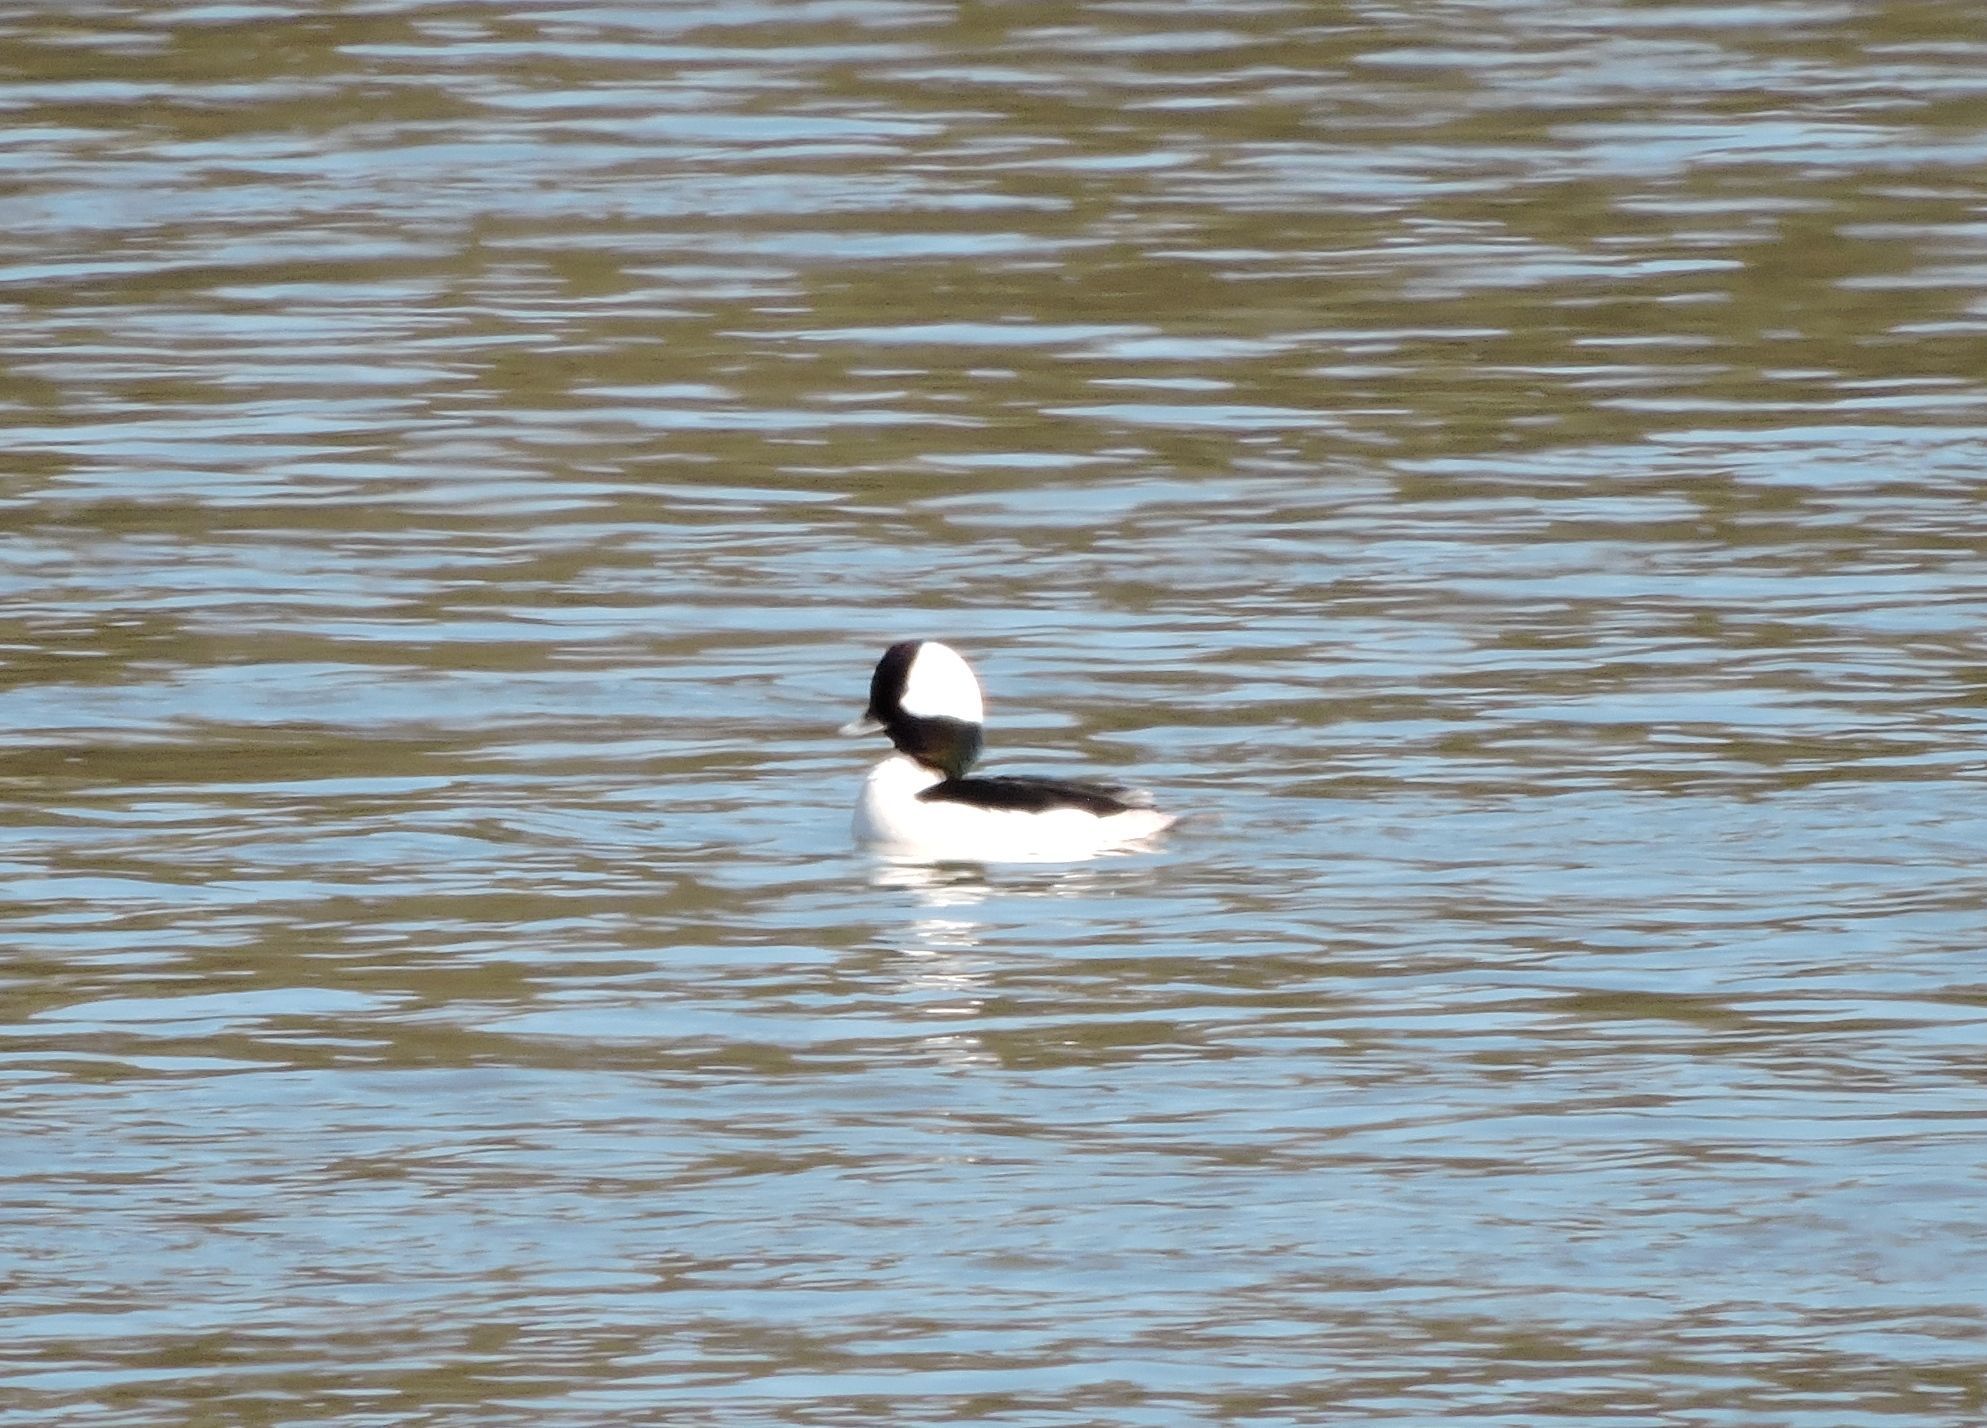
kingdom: Animalia
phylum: Chordata
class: Aves
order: Anseriformes
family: Anatidae
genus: Bucephala
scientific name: Bucephala albeola
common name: Bufflehead
